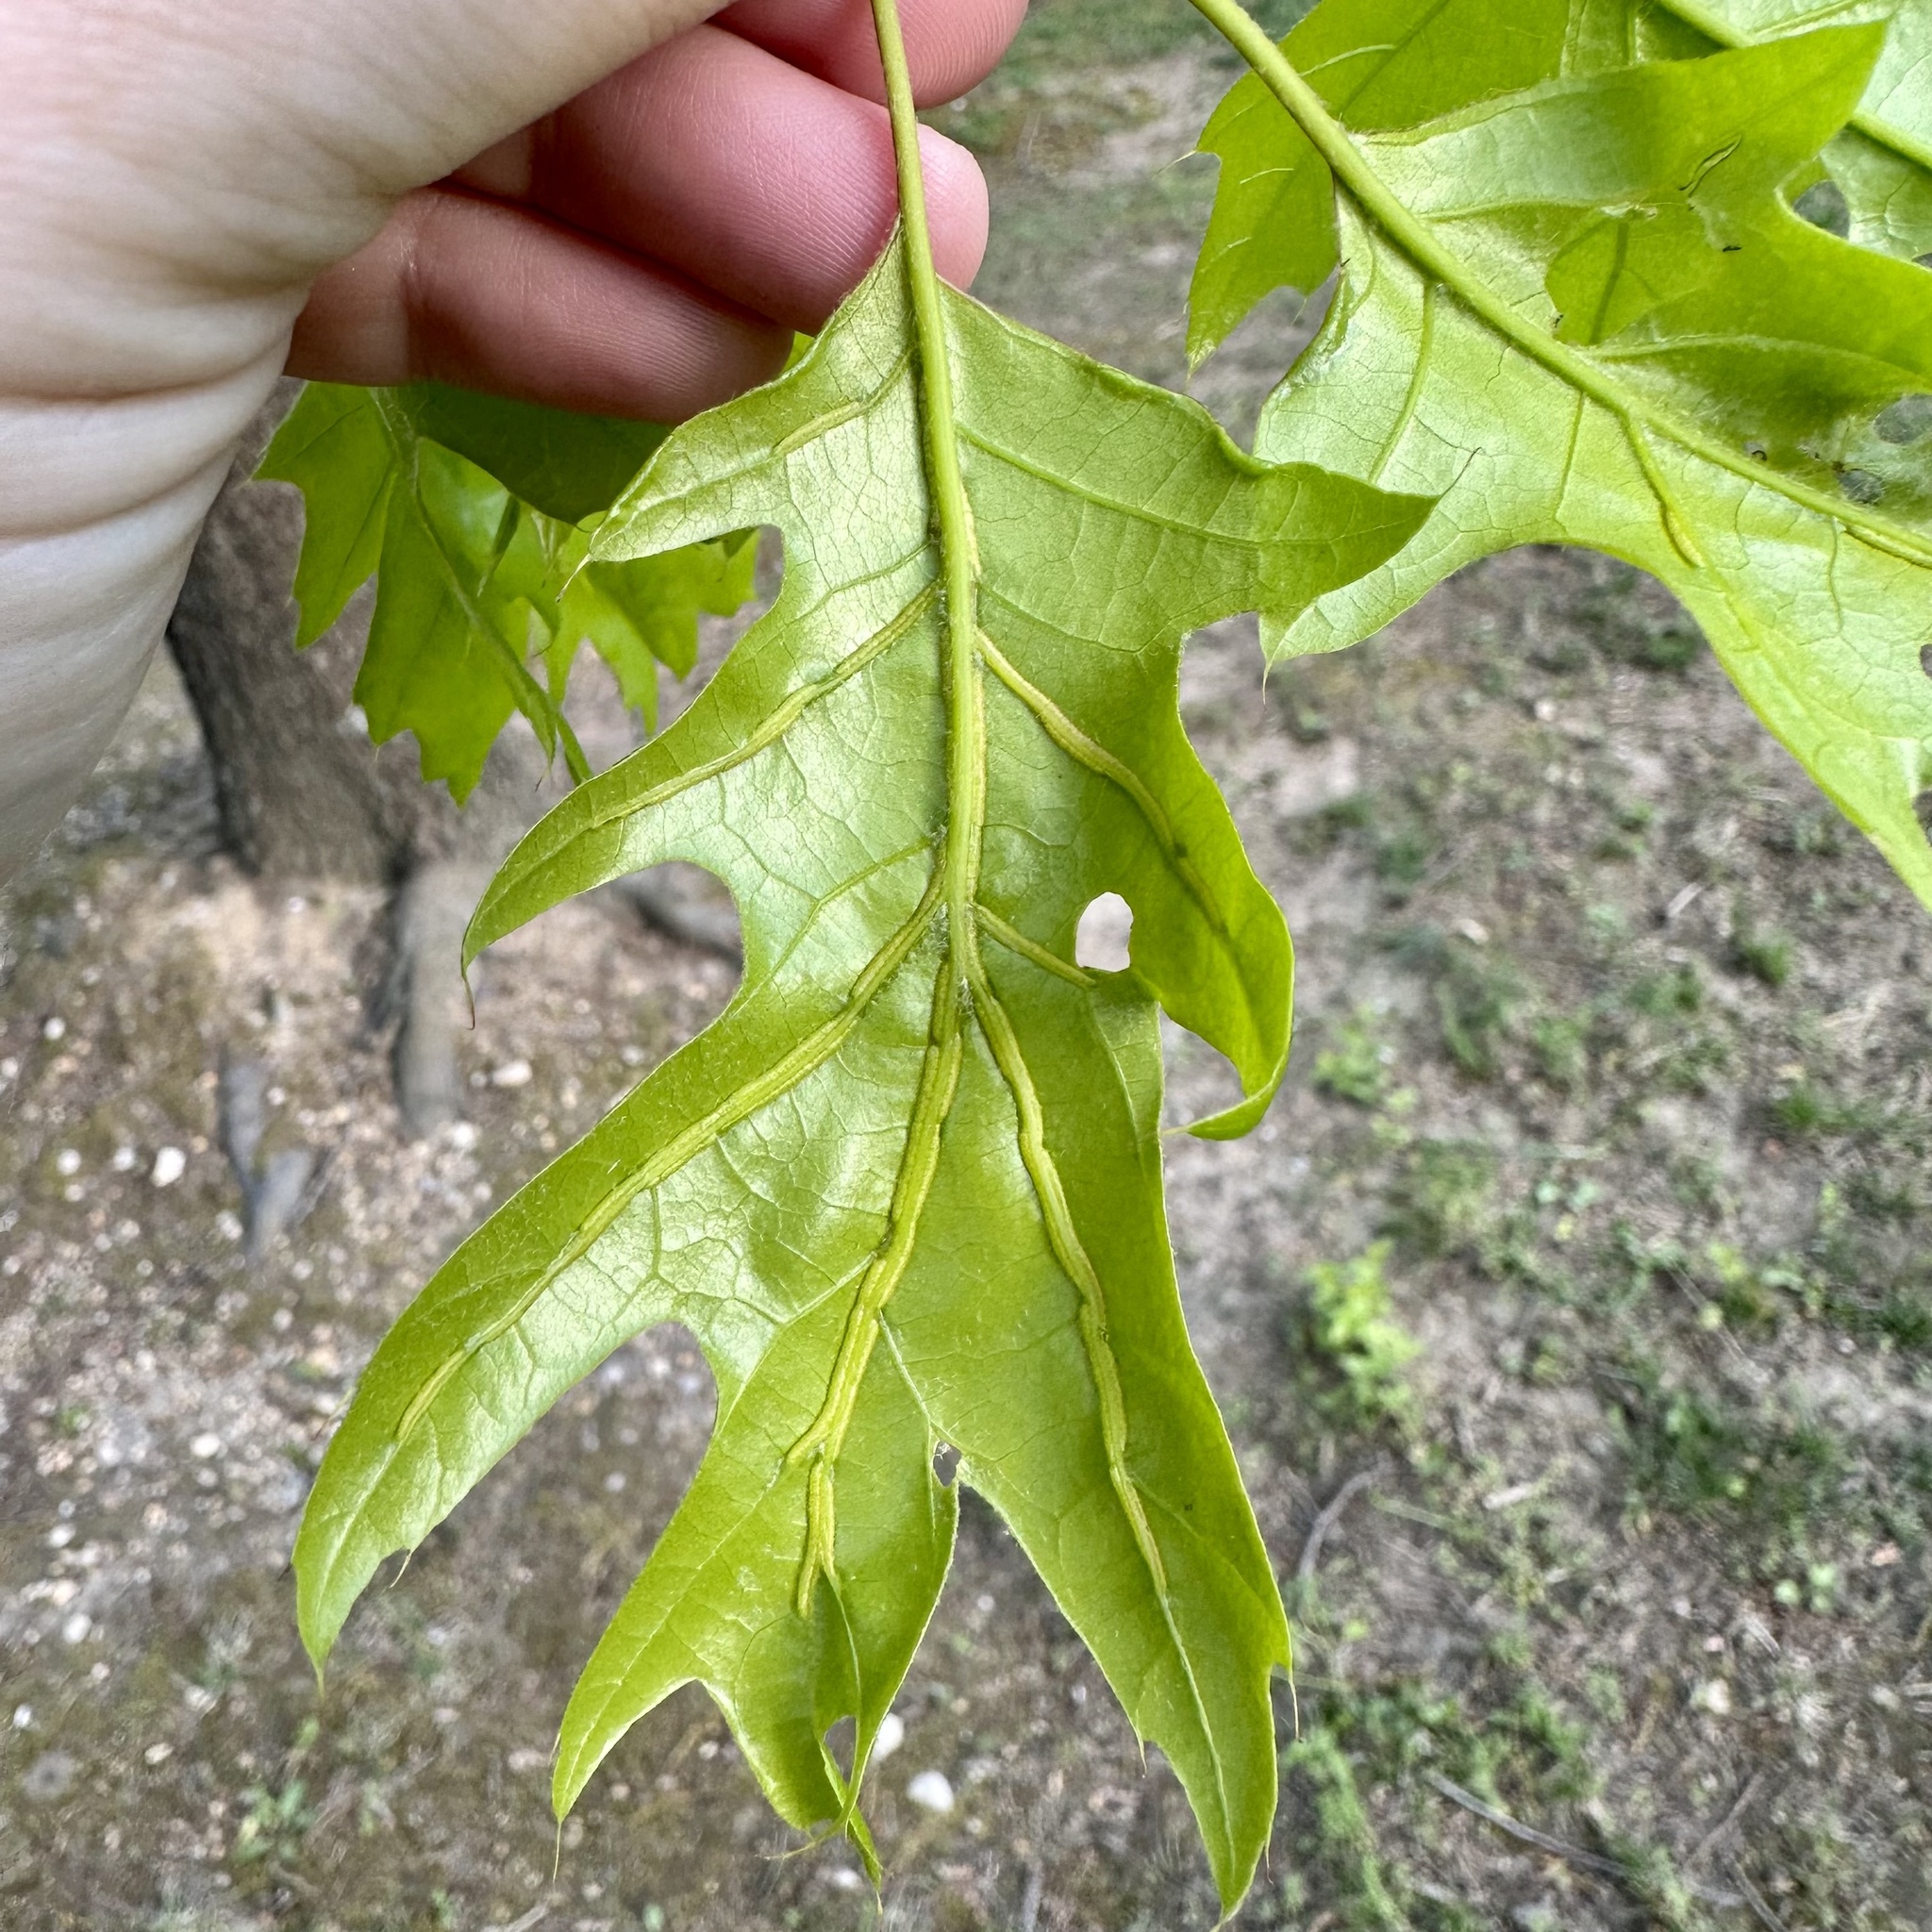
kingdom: Animalia
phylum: Arthropoda
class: Insecta
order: Diptera
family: Cecidomyiidae
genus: Macrodiplosis
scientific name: Macrodiplosis q-orucum
